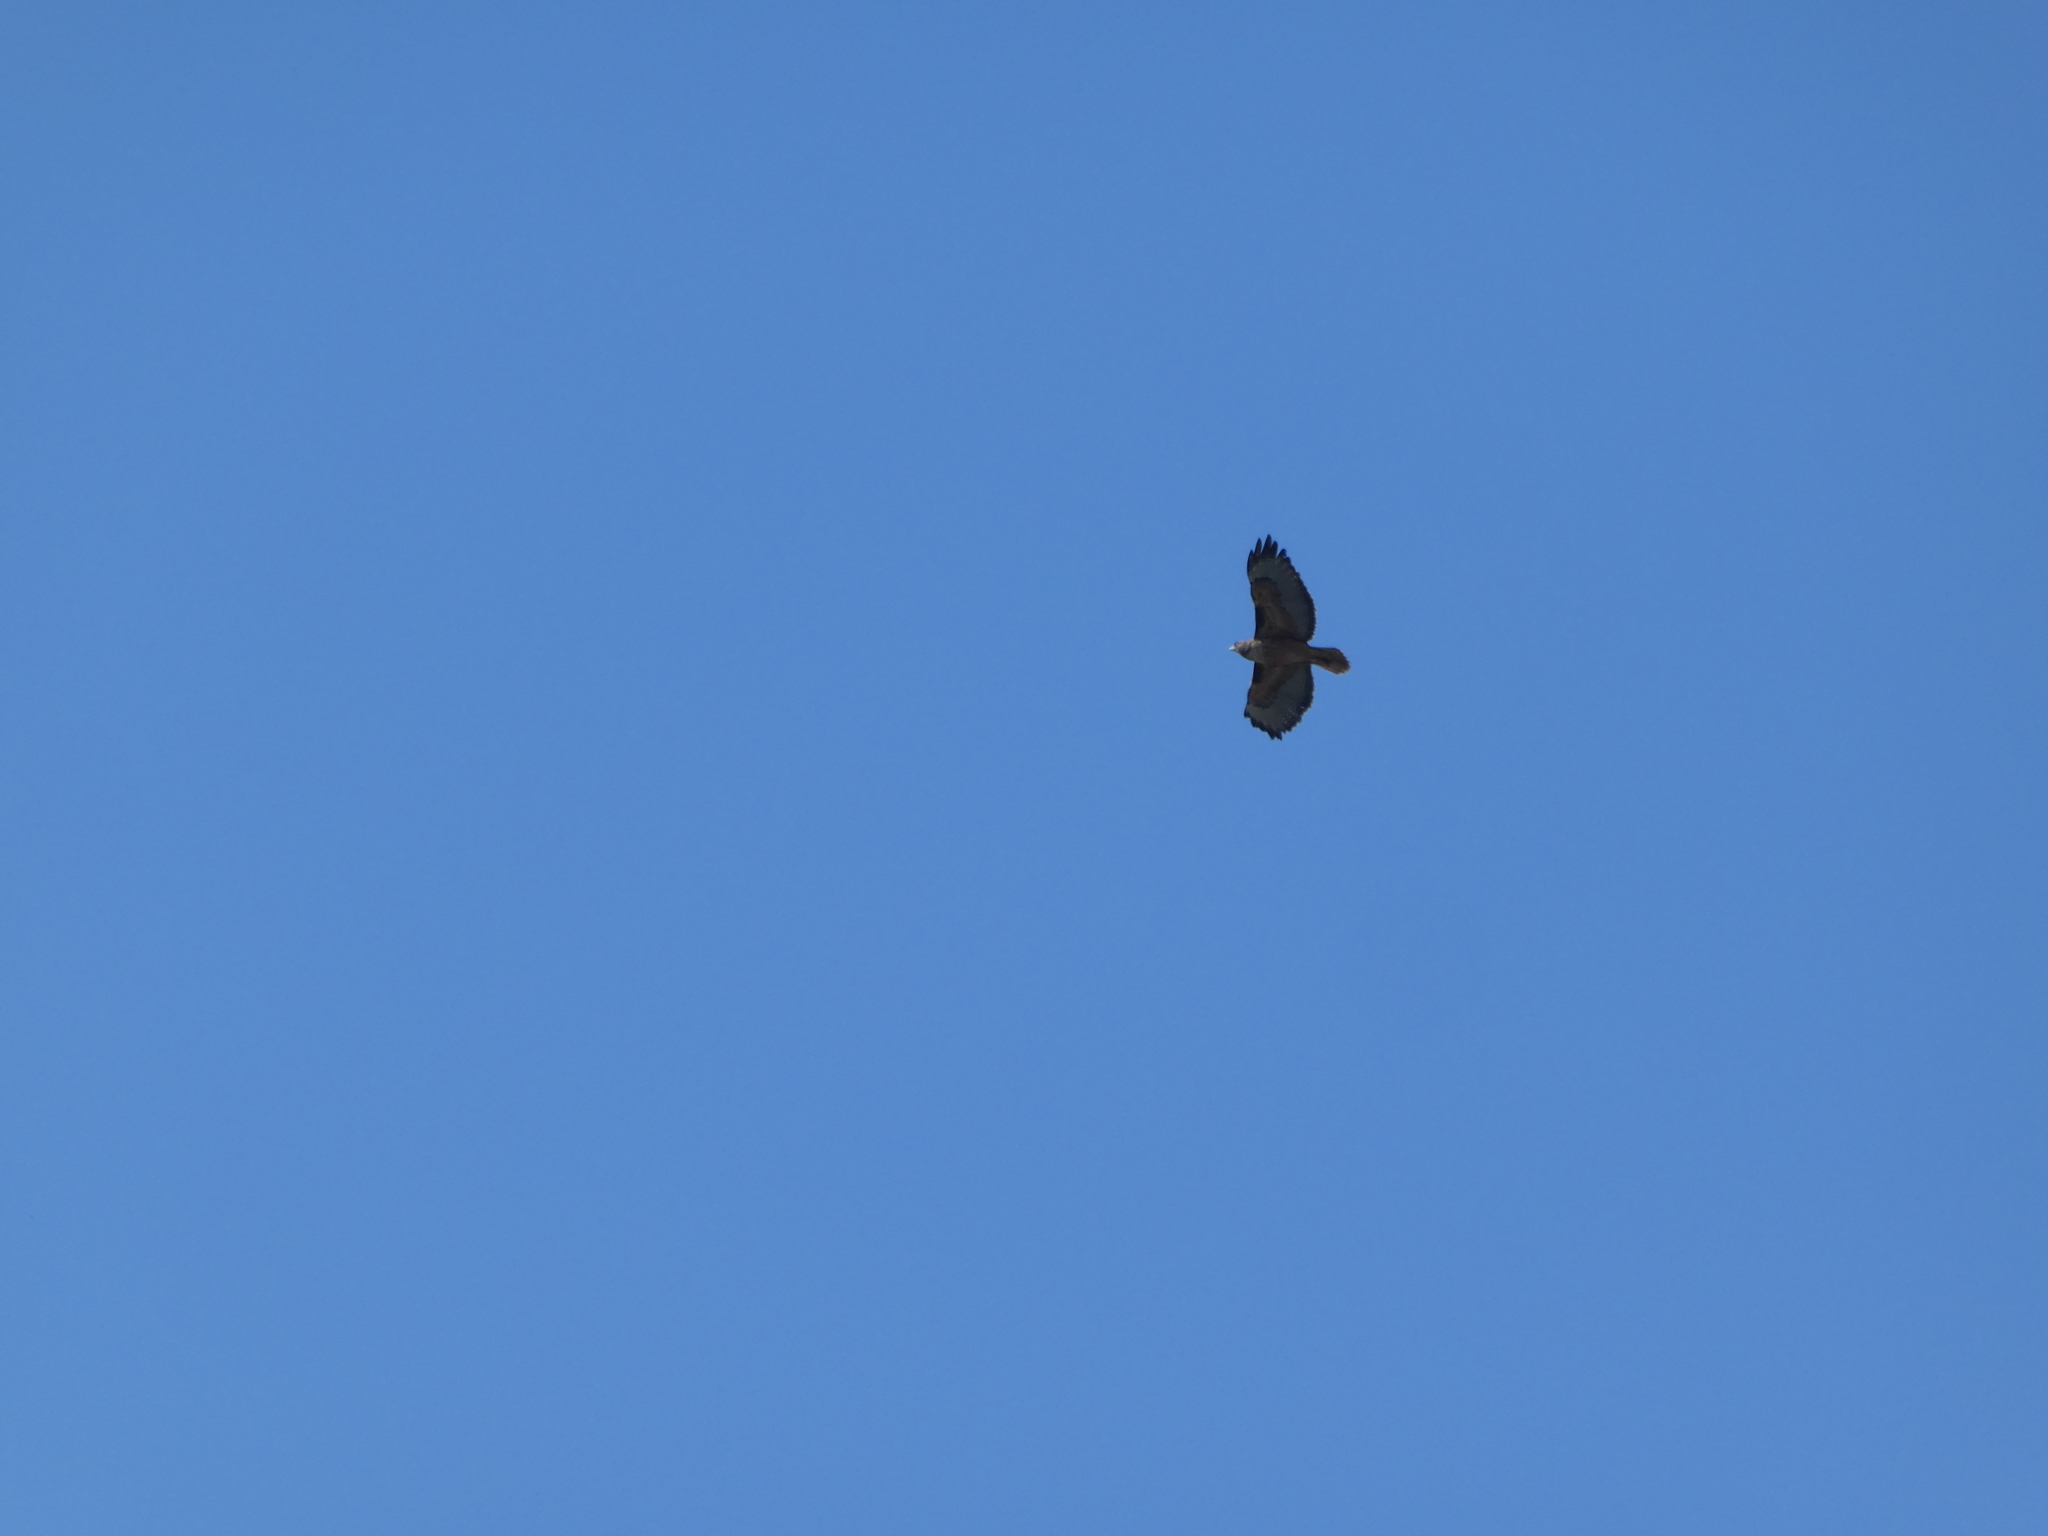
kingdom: Animalia
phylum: Chordata
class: Aves
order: Accipitriformes
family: Accipitridae
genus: Buteo
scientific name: Buteo jamaicensis
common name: Red-tailed hawk
